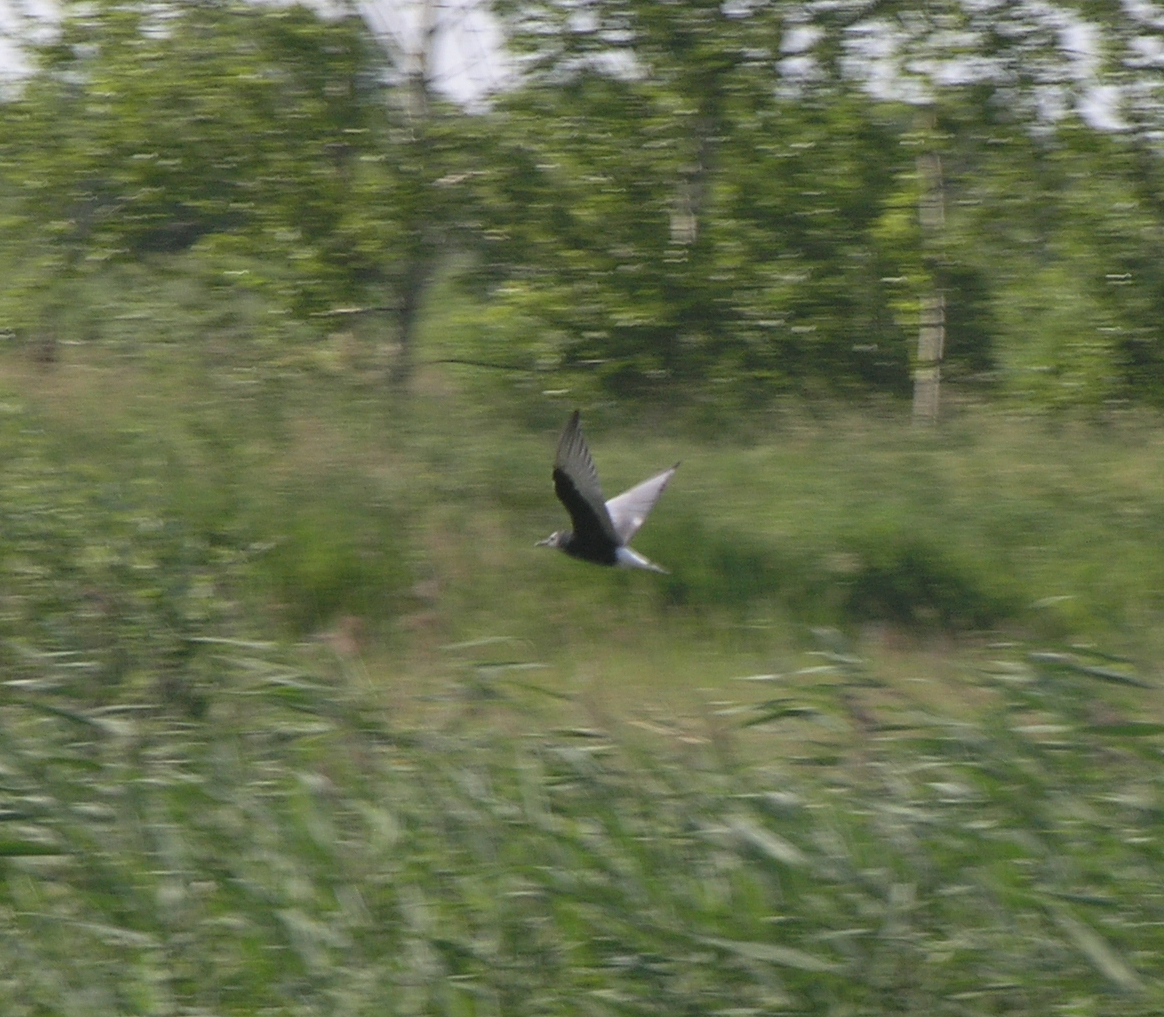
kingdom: Animalia
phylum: Chordata
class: Aves
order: Charadriiformes
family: Laridae
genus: Chlidonias
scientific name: Chlidonias leucopterus
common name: White-winged tern
